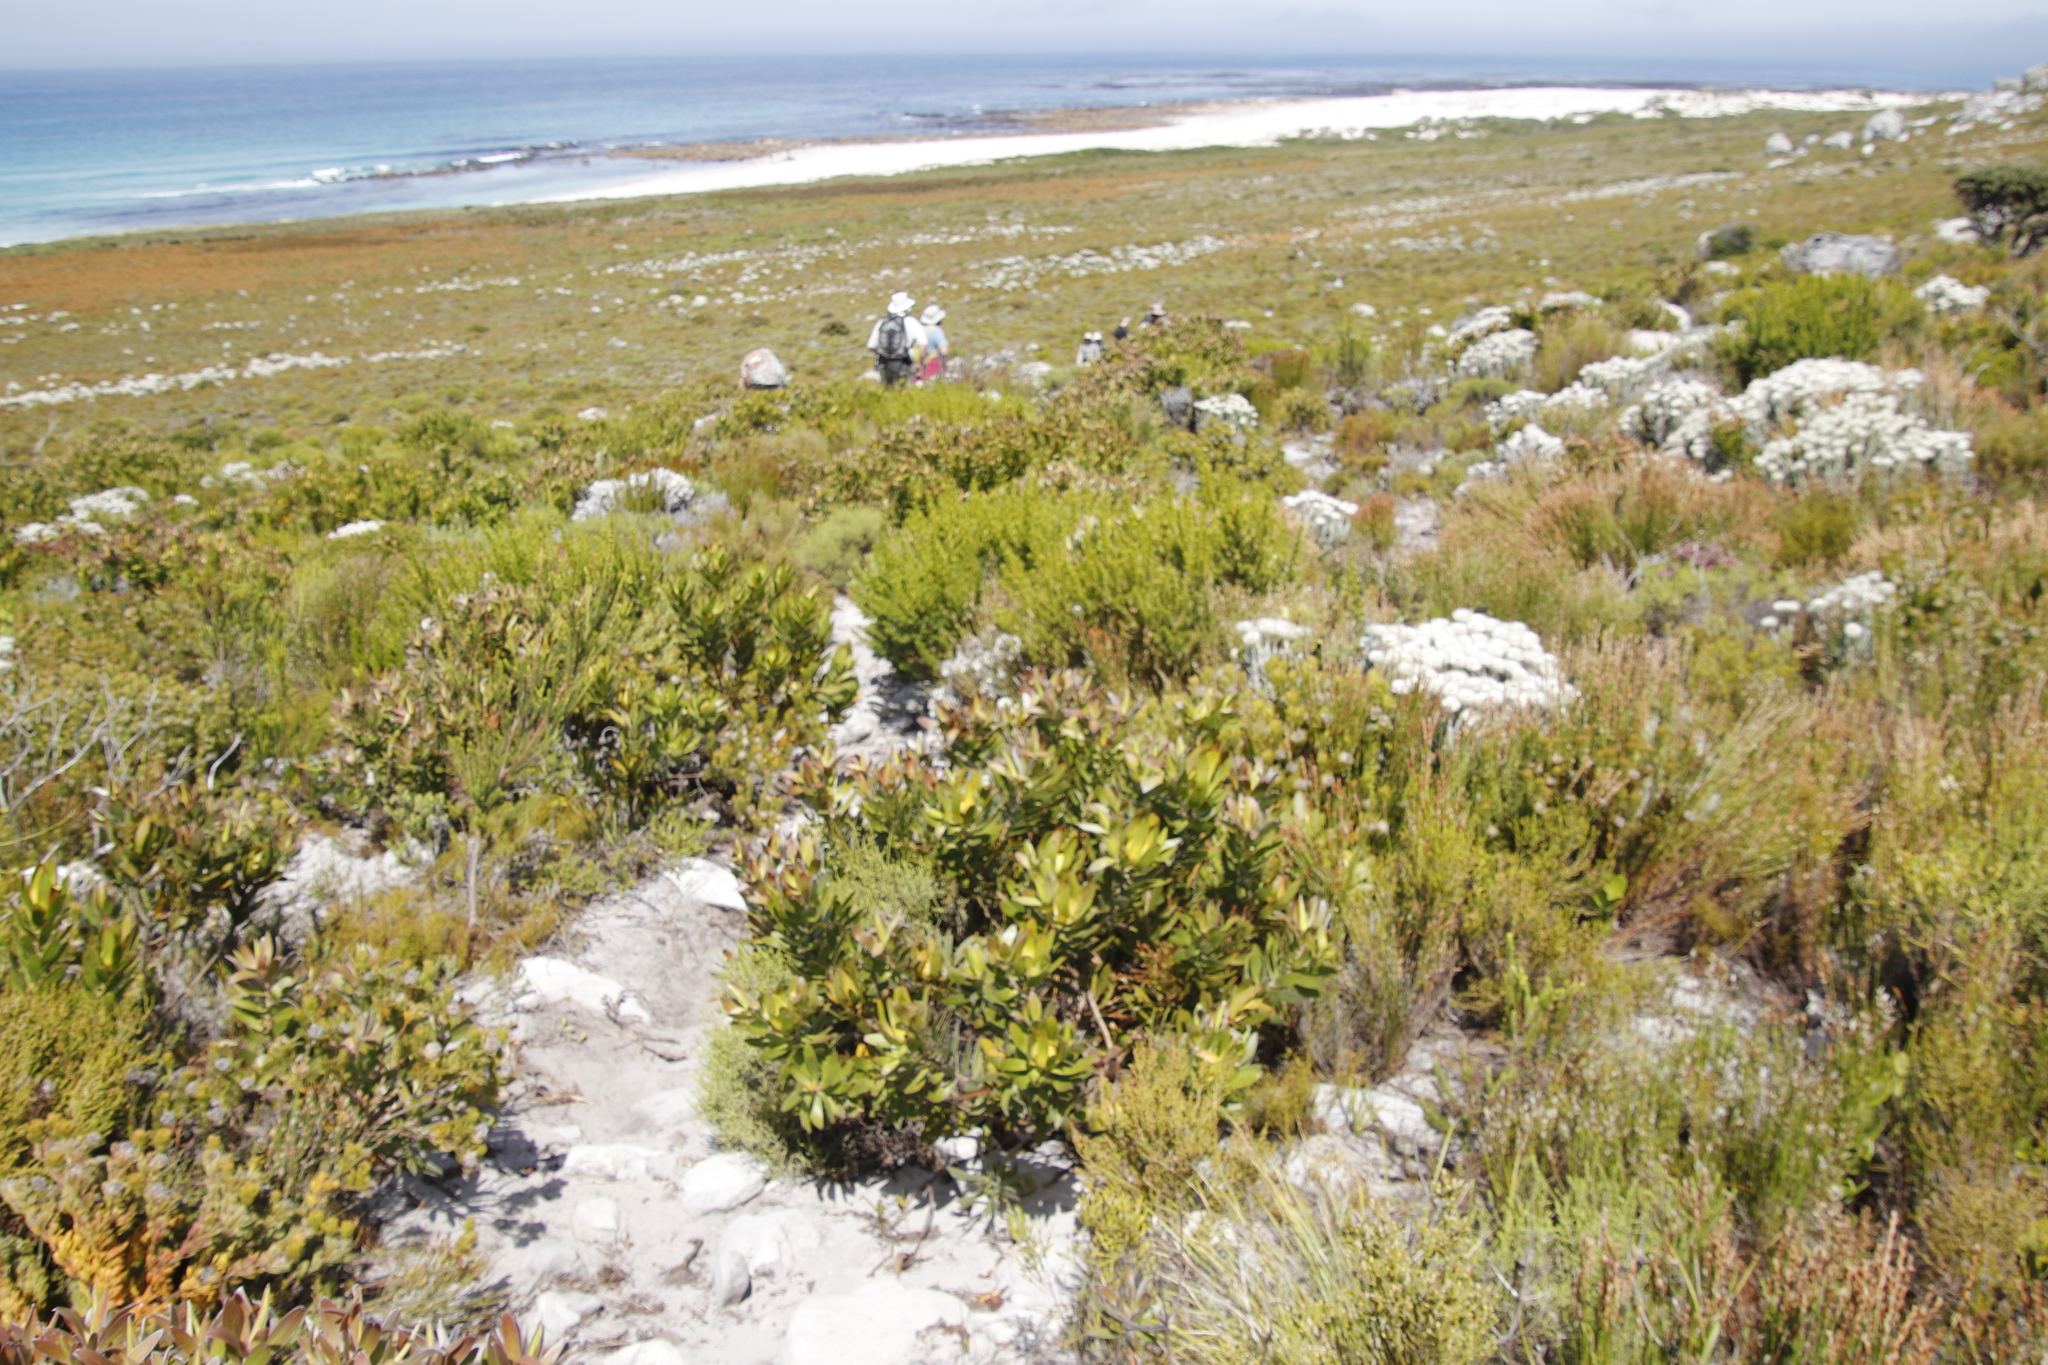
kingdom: Plantae
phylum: Tracheophyta
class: Magnoliopsida
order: Proteales
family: Proteaceae
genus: Leucadendron
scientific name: Leucadendron laureolum
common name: Golden sunshinebush
